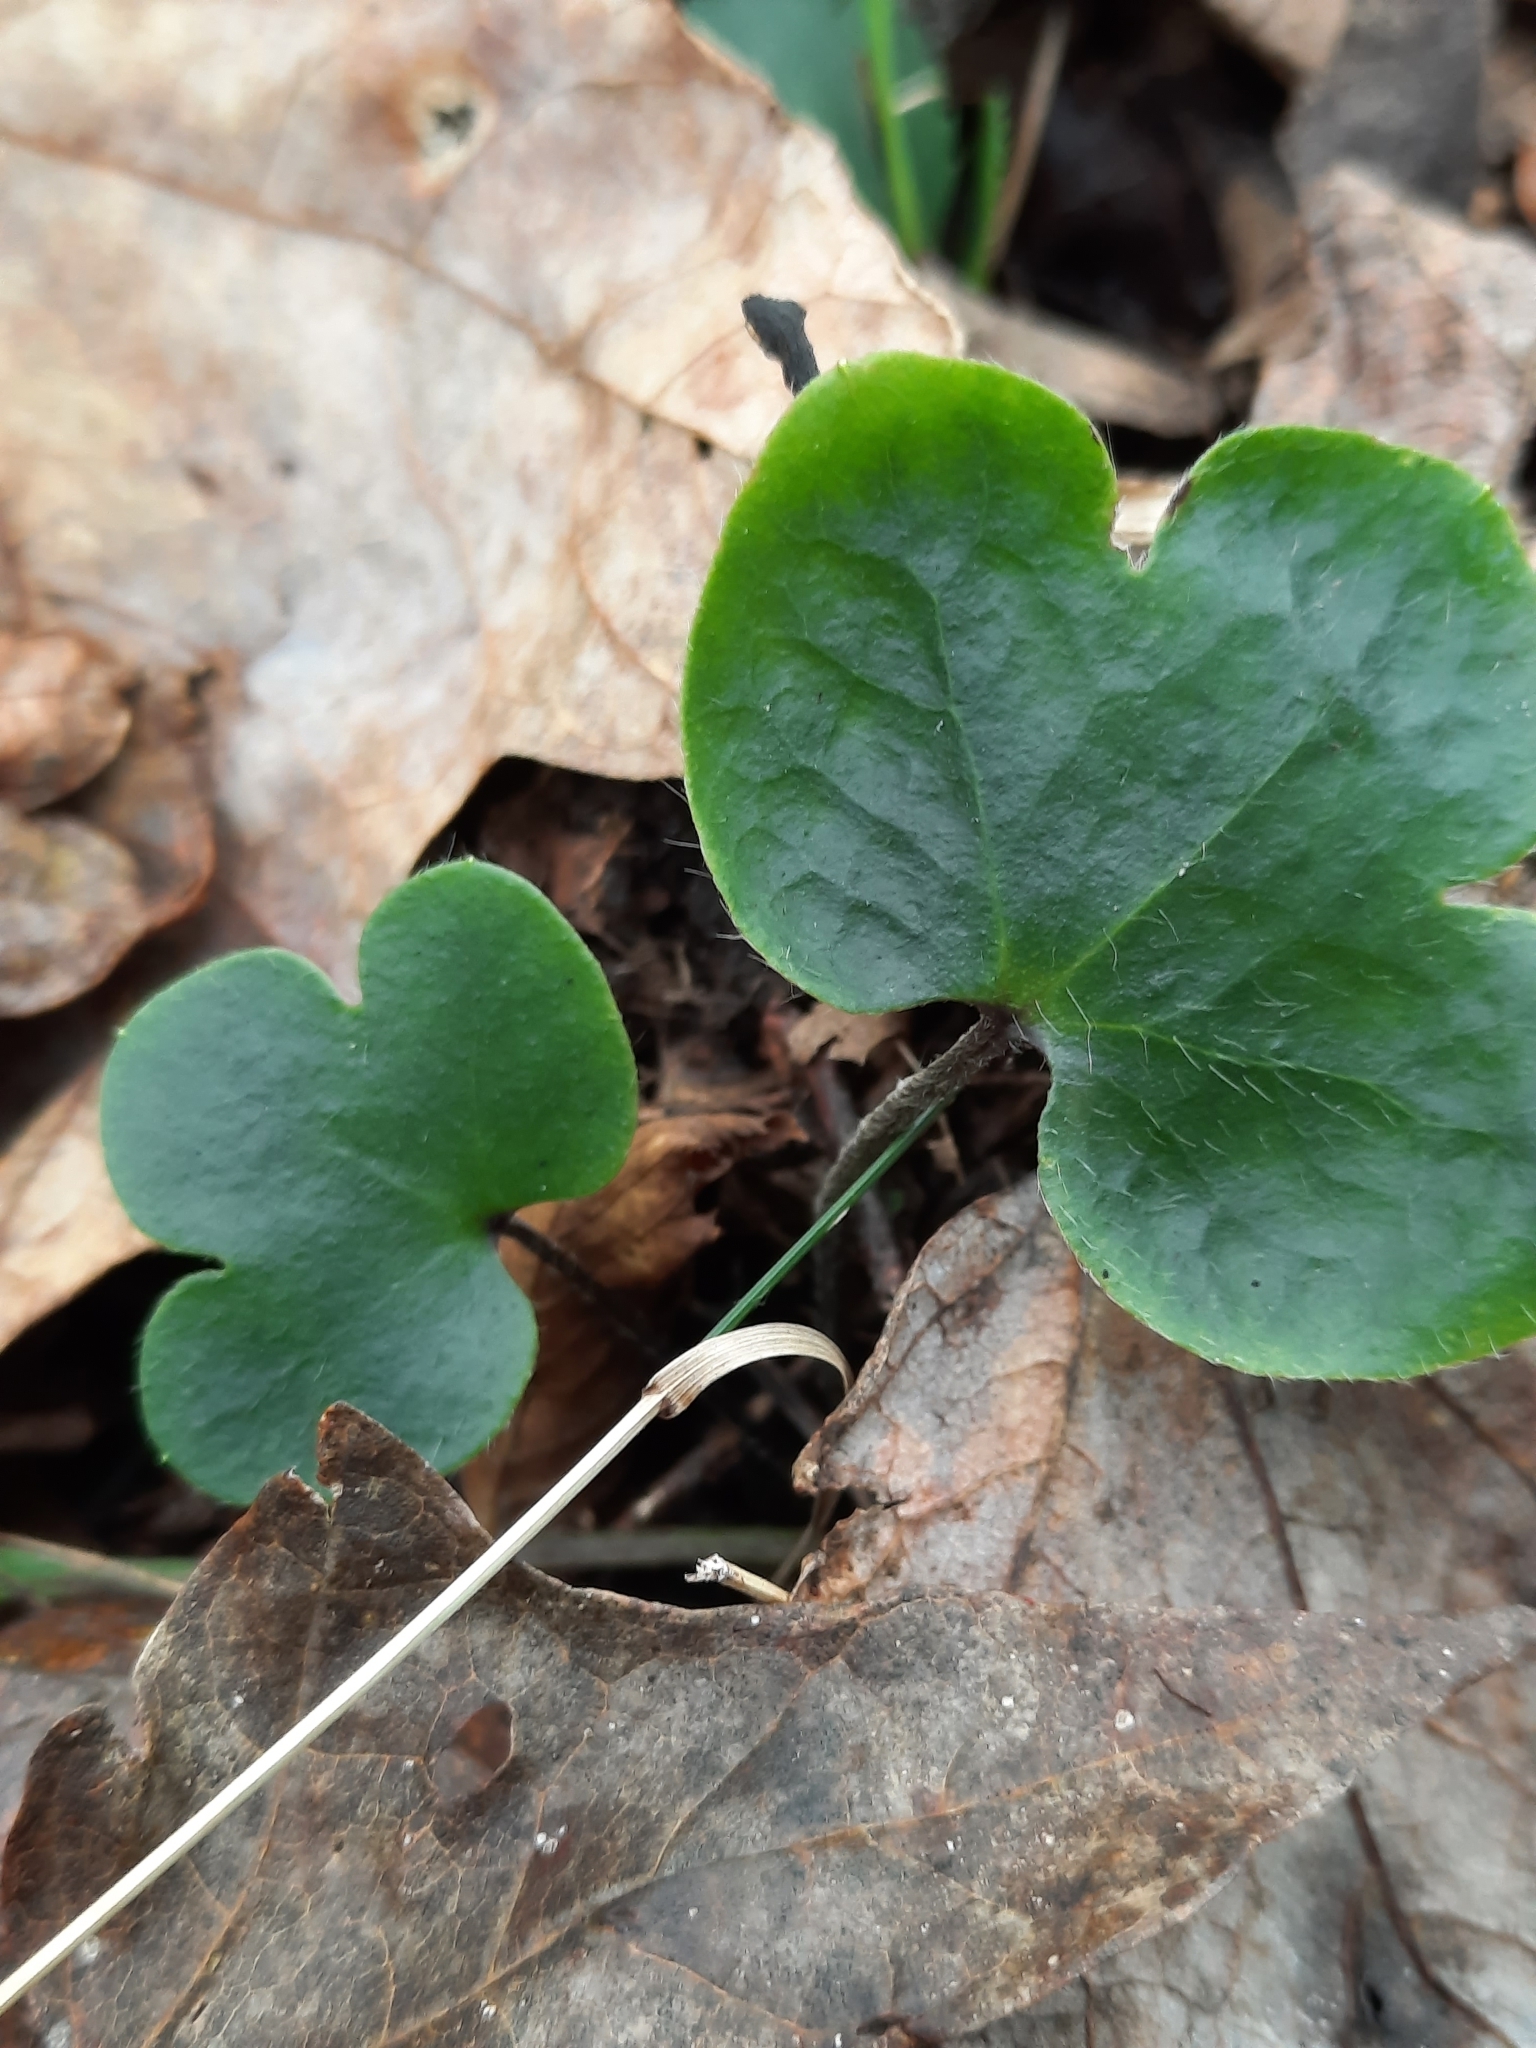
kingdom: Plantae
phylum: Tracheophyta
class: Magnoliopsida
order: Ranunculales
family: Ranunculaceae
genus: Hepatica
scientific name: Hepatica americana
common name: American hepatica
